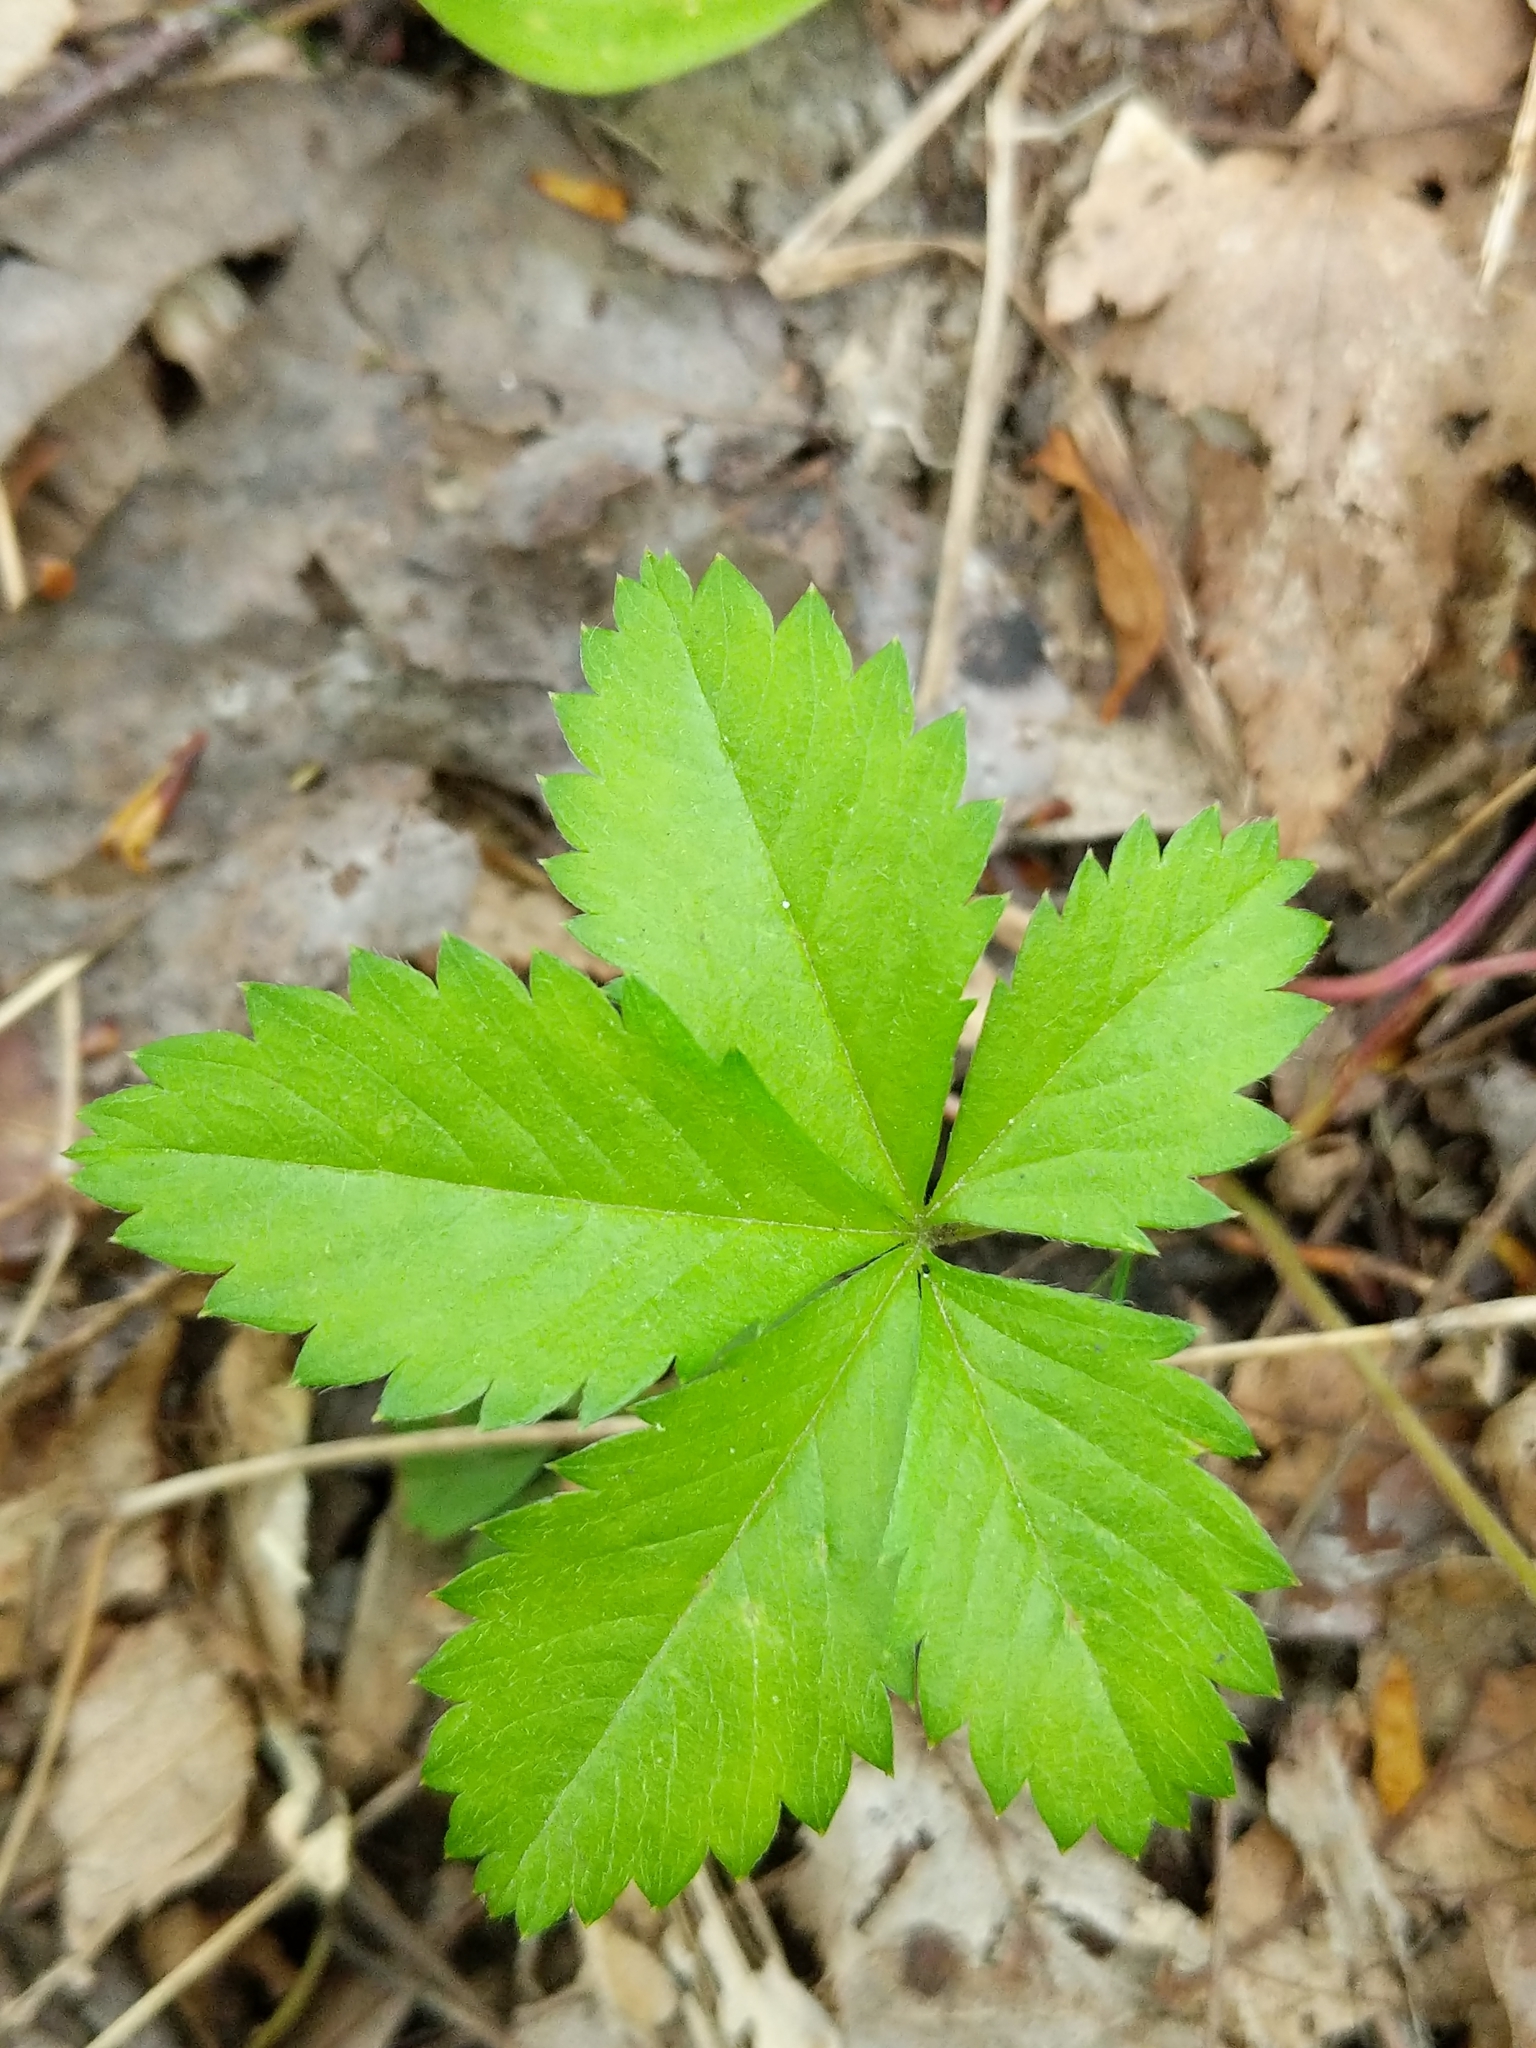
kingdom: Plantae
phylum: Tracheophyta
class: Magnoliopsida
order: Rosales
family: Rosaceae
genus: Potentilla
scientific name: Potentilla simplex
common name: Old field cinquefoil
